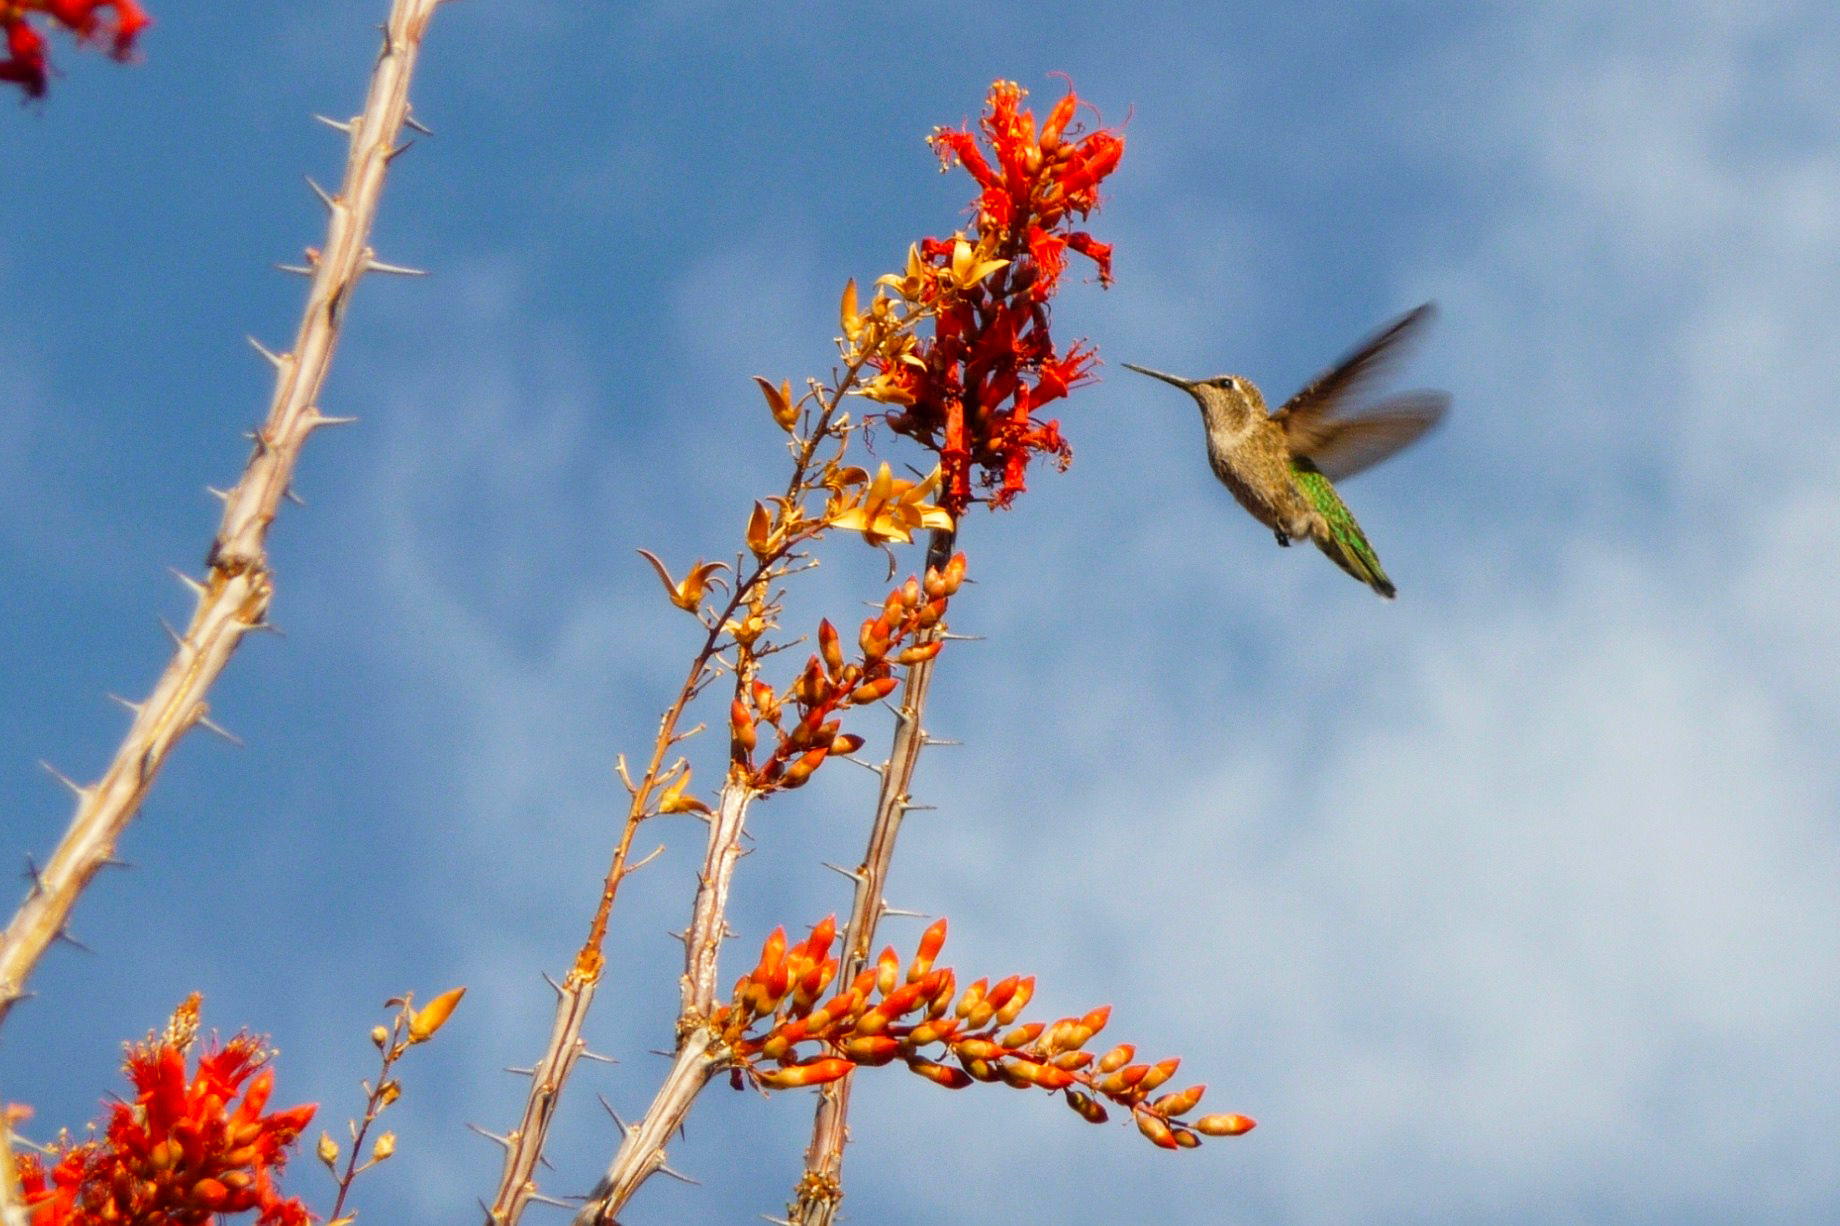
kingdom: Animalia
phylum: Chordata
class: Aves
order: Apodiformes
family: Trochilidae
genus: Calypte
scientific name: Calypte anna
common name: Anna's hummingbird
